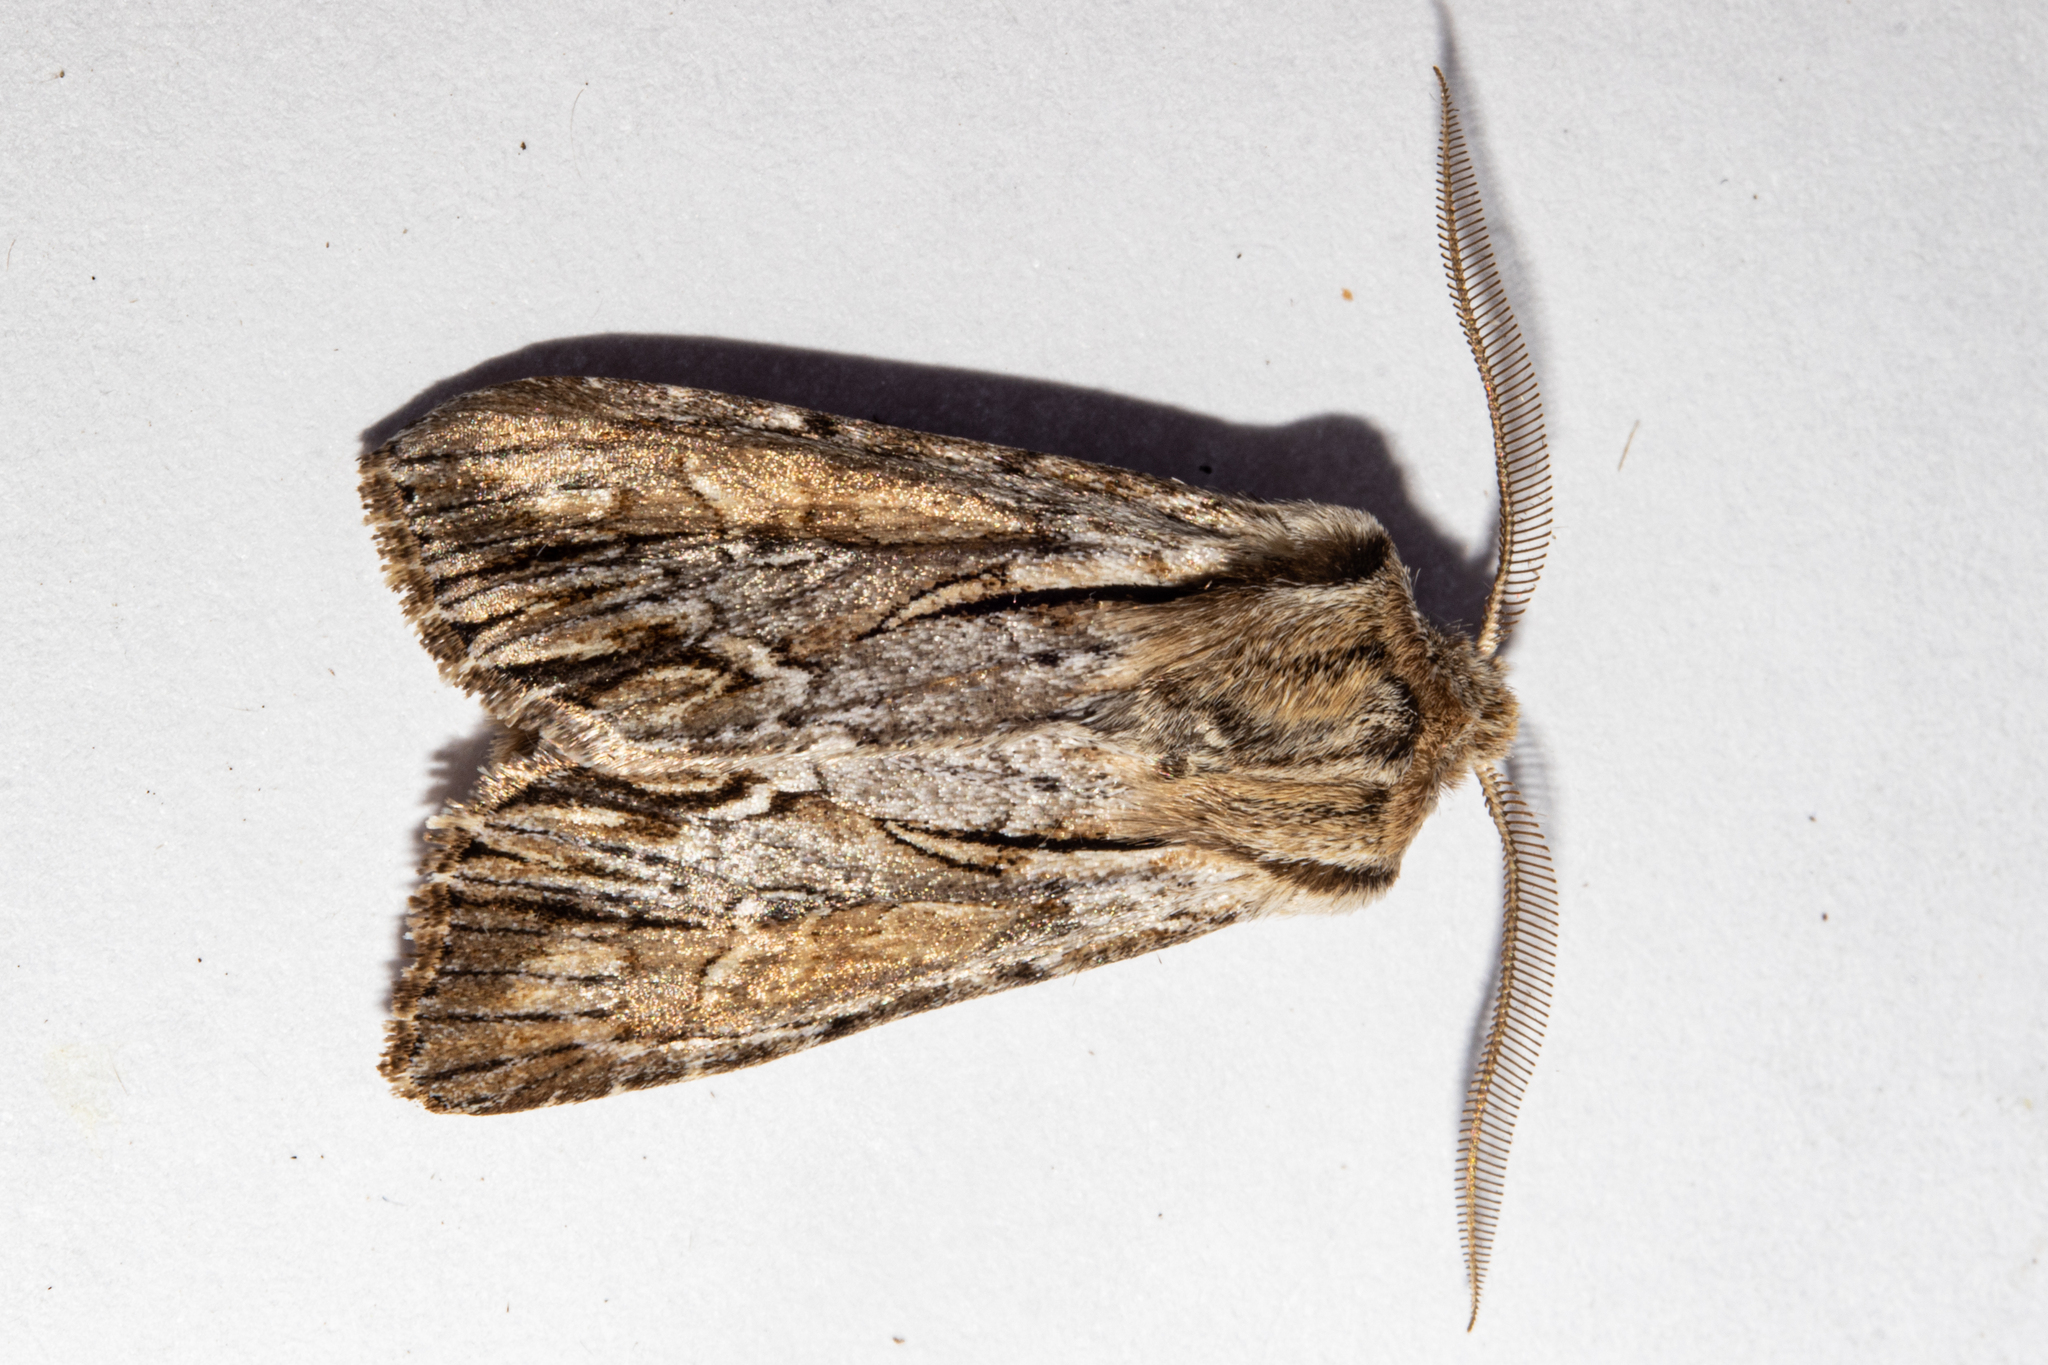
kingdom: Animalia
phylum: Arthropoda
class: Insecta
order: Lepidoptera
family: Noctuidae
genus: Ichneutica
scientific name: Ichneutica
